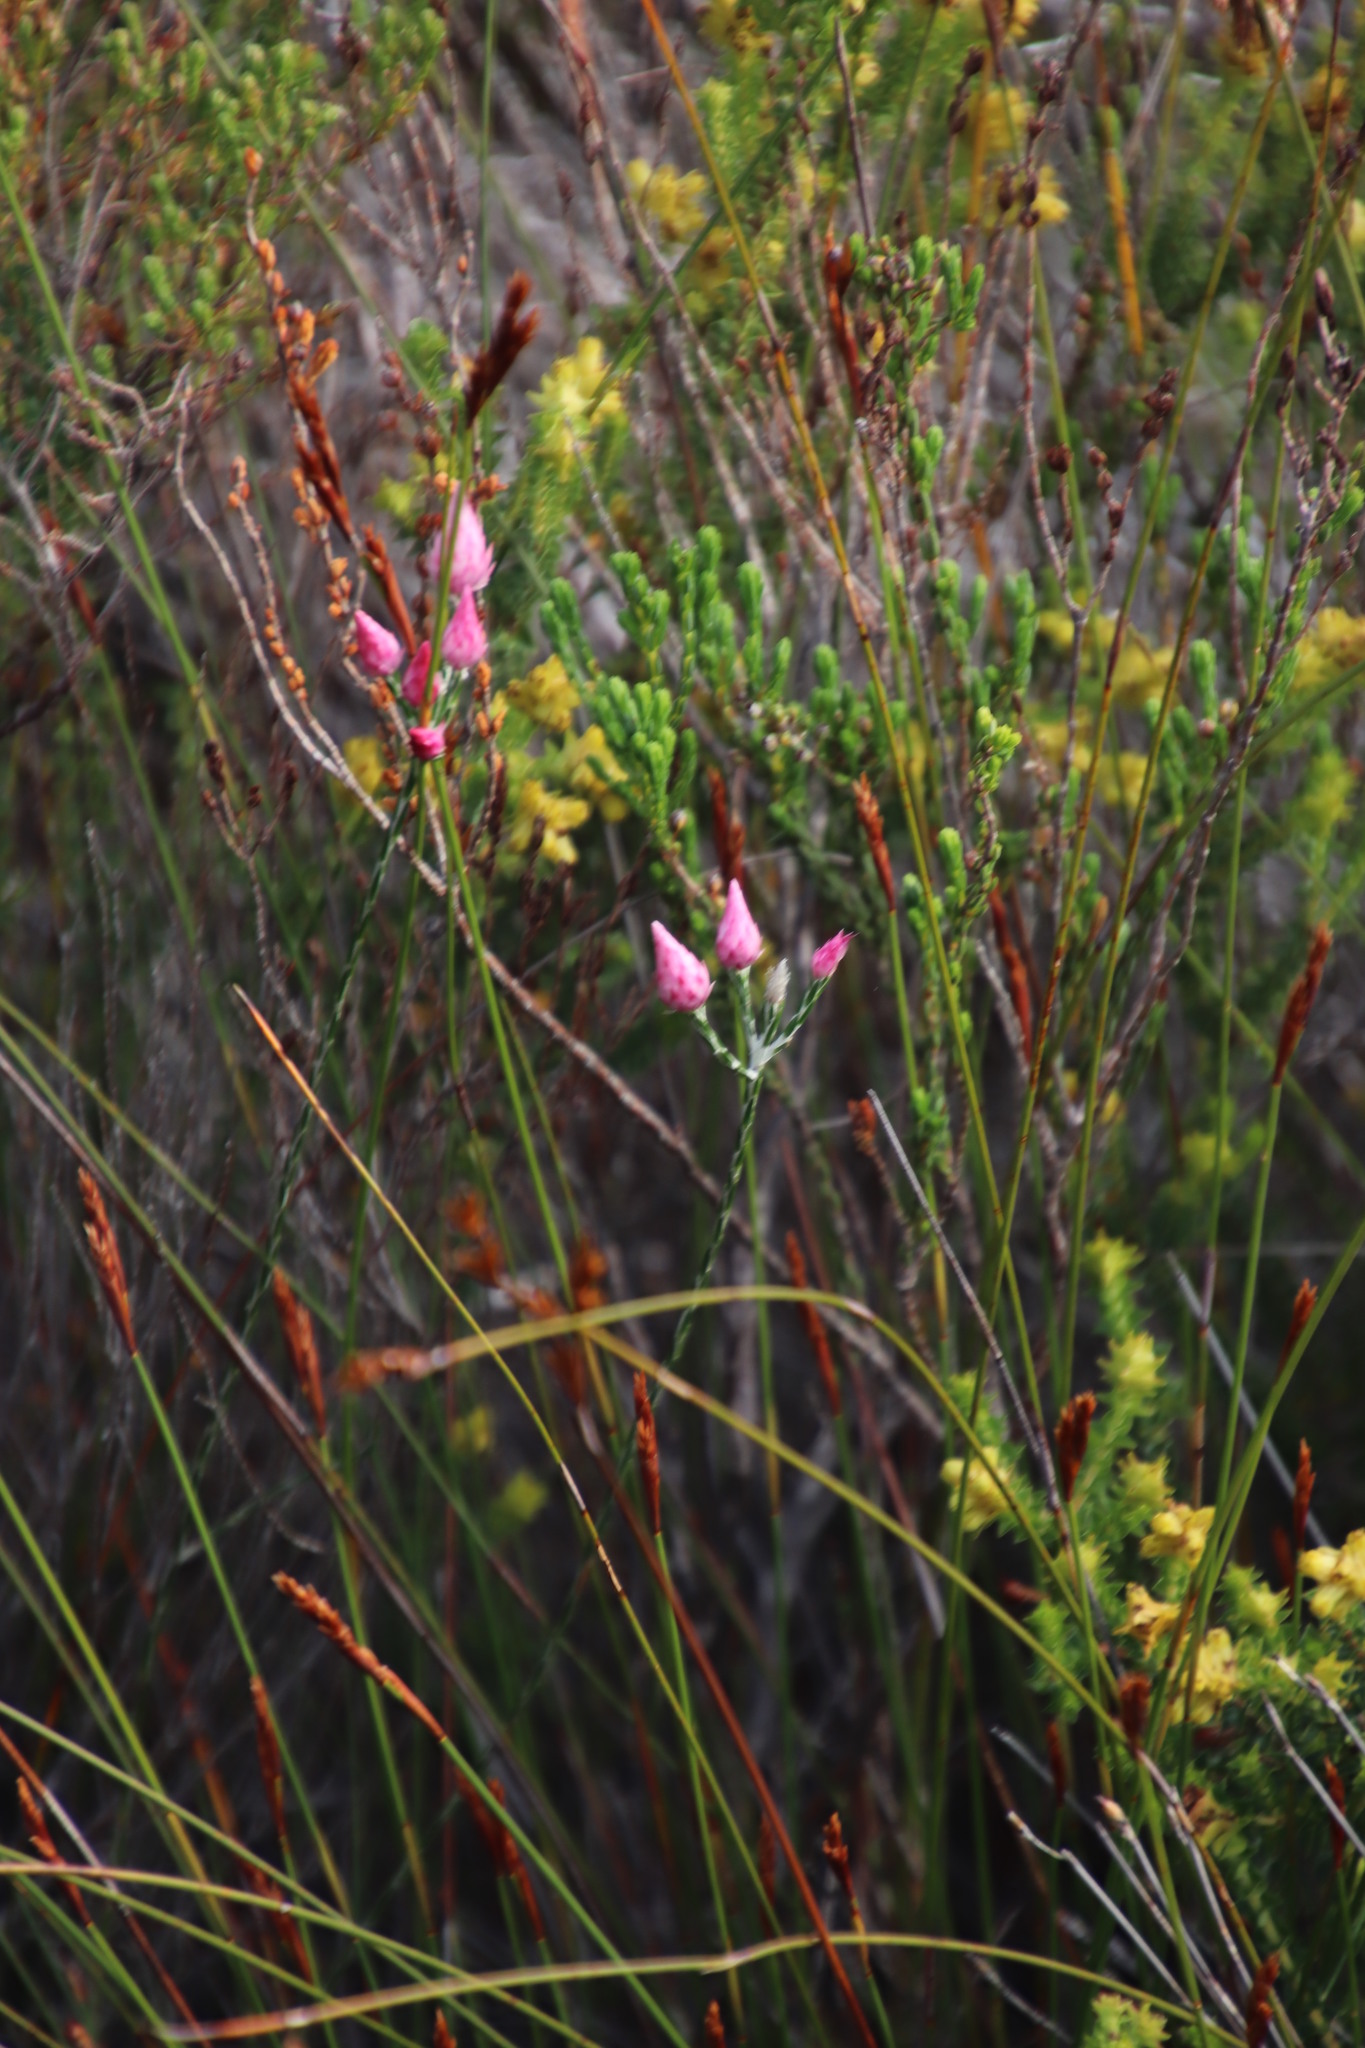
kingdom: Plantae
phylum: Tracheophyta
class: Magnoliopsida
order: Asterales
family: Asteraceae
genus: Edmondia
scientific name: Edmondia sesamoides
